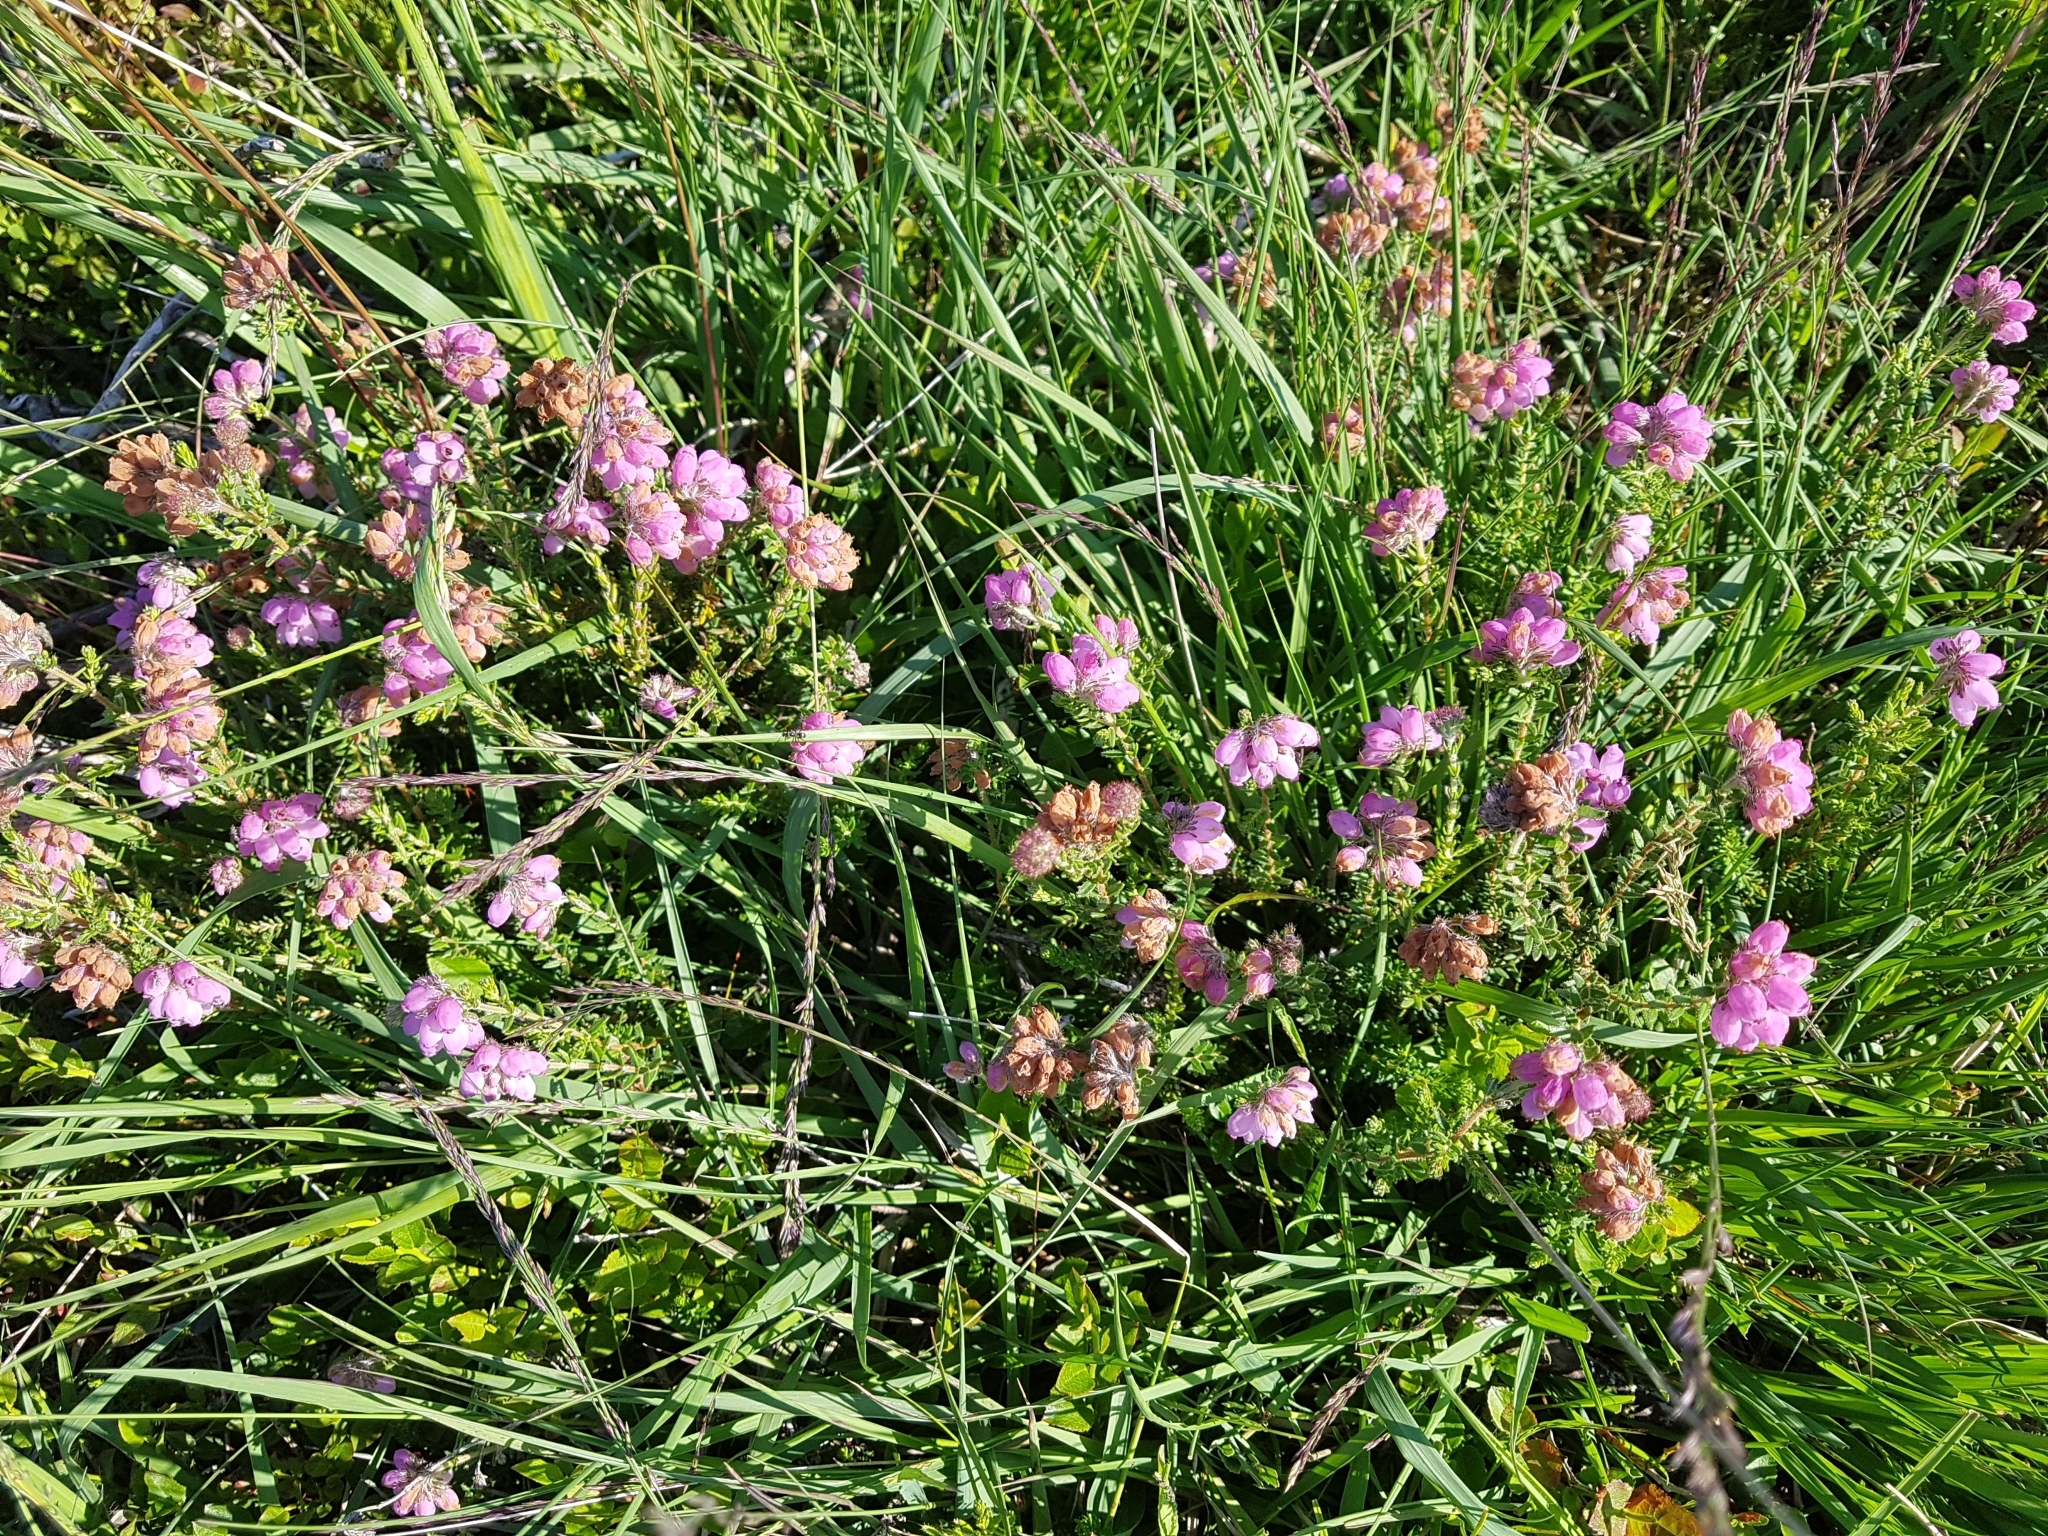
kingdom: Plantae
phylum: Tracheophyta
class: Magnoliopsida
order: Ericales
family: Ericaceae
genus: Erica
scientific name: Erica tetralix
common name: Cross-leaved heath
